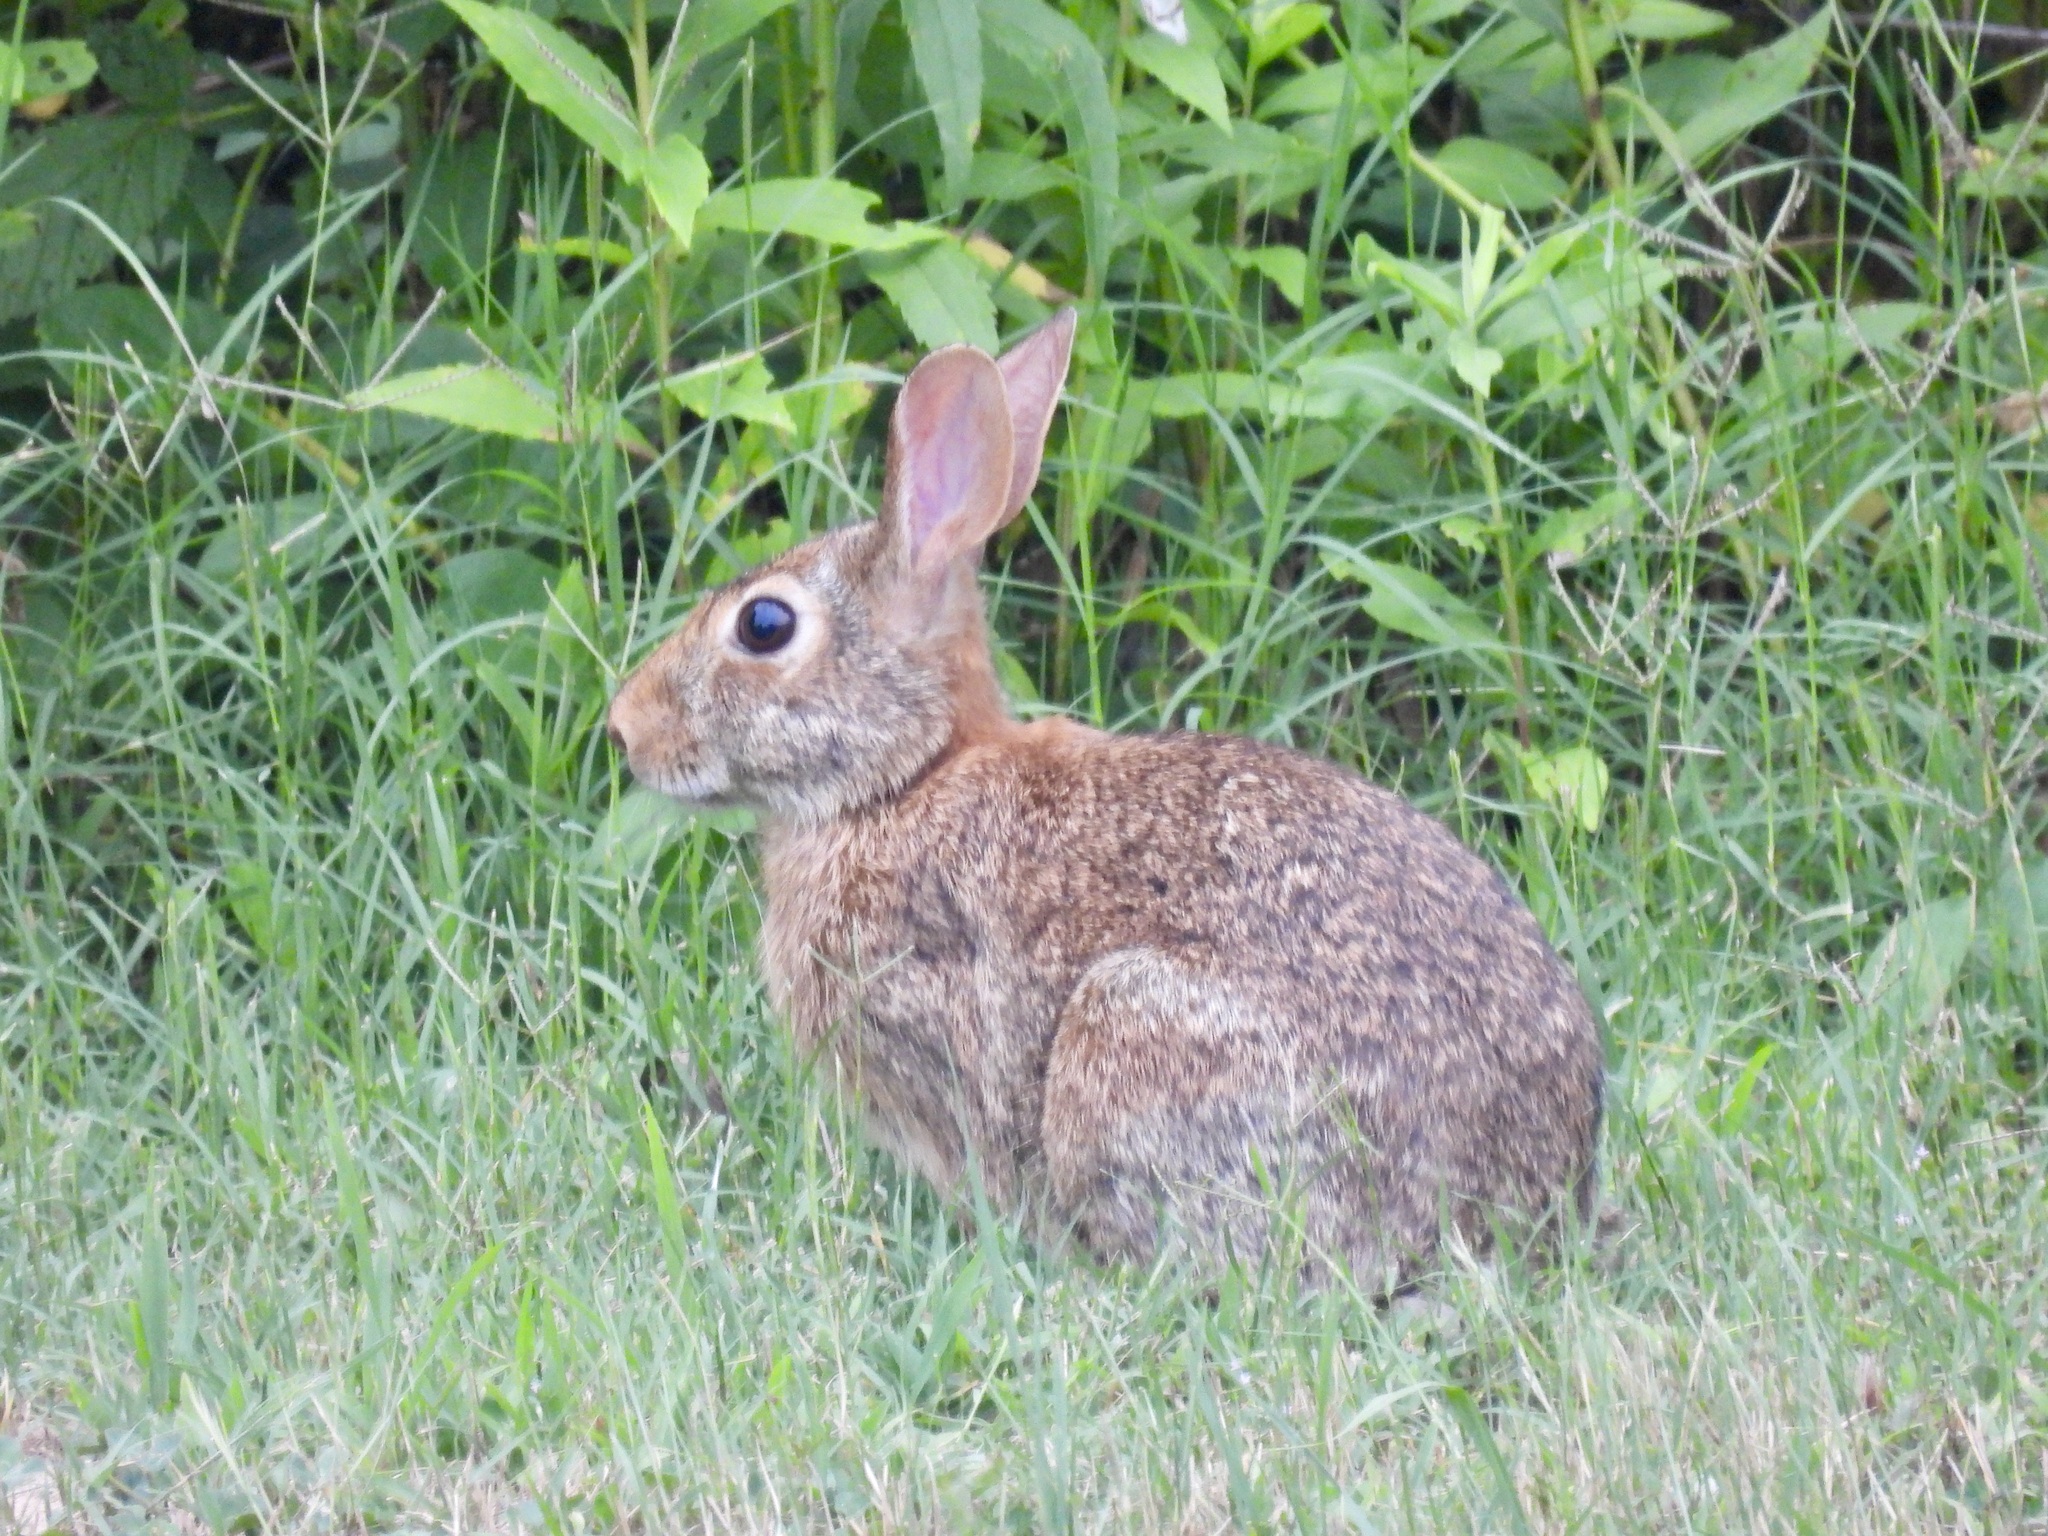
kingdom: Animalia
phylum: Chordata
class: Mammalia
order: Lagomorpha
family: Leporidae
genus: Sylvilagus
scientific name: Sylvilagus floridanus
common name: Eastern cottontail
